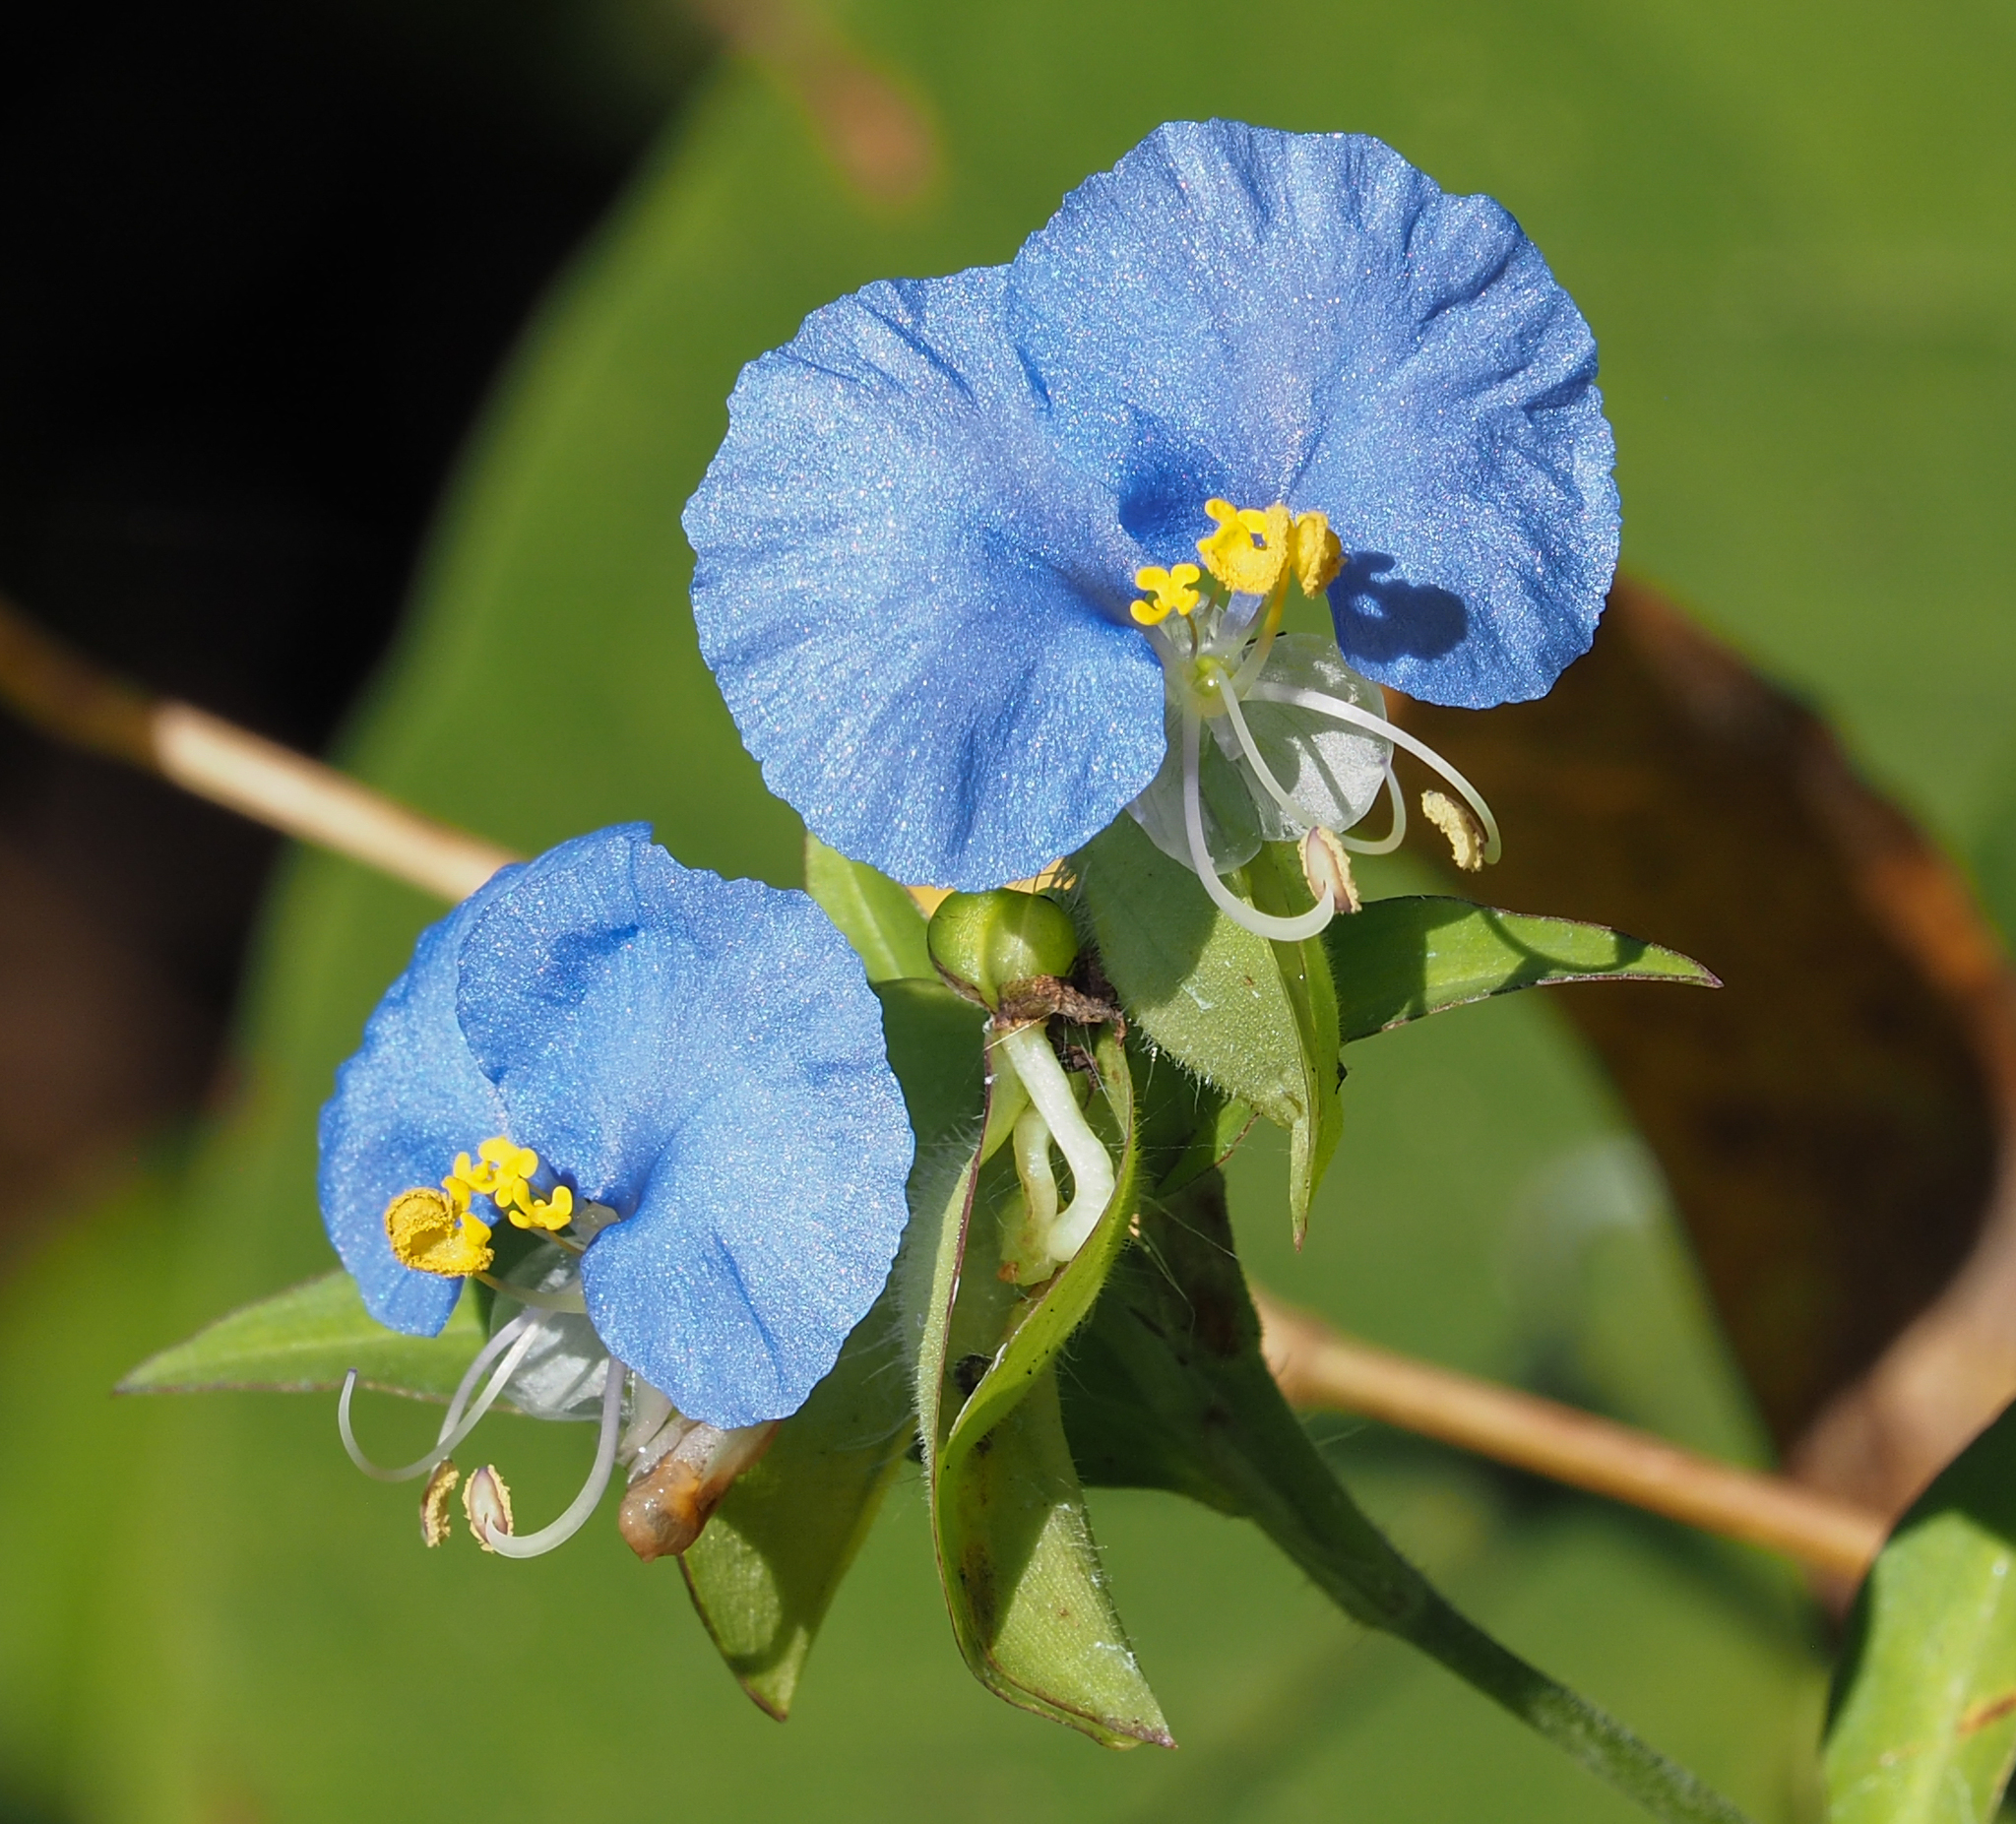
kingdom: Plantae
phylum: Tracheophyta
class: Liliopsida
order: Commelinales
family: Commelinaceae
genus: Commelina
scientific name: Commelina erecta
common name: Blousel blommetjie
